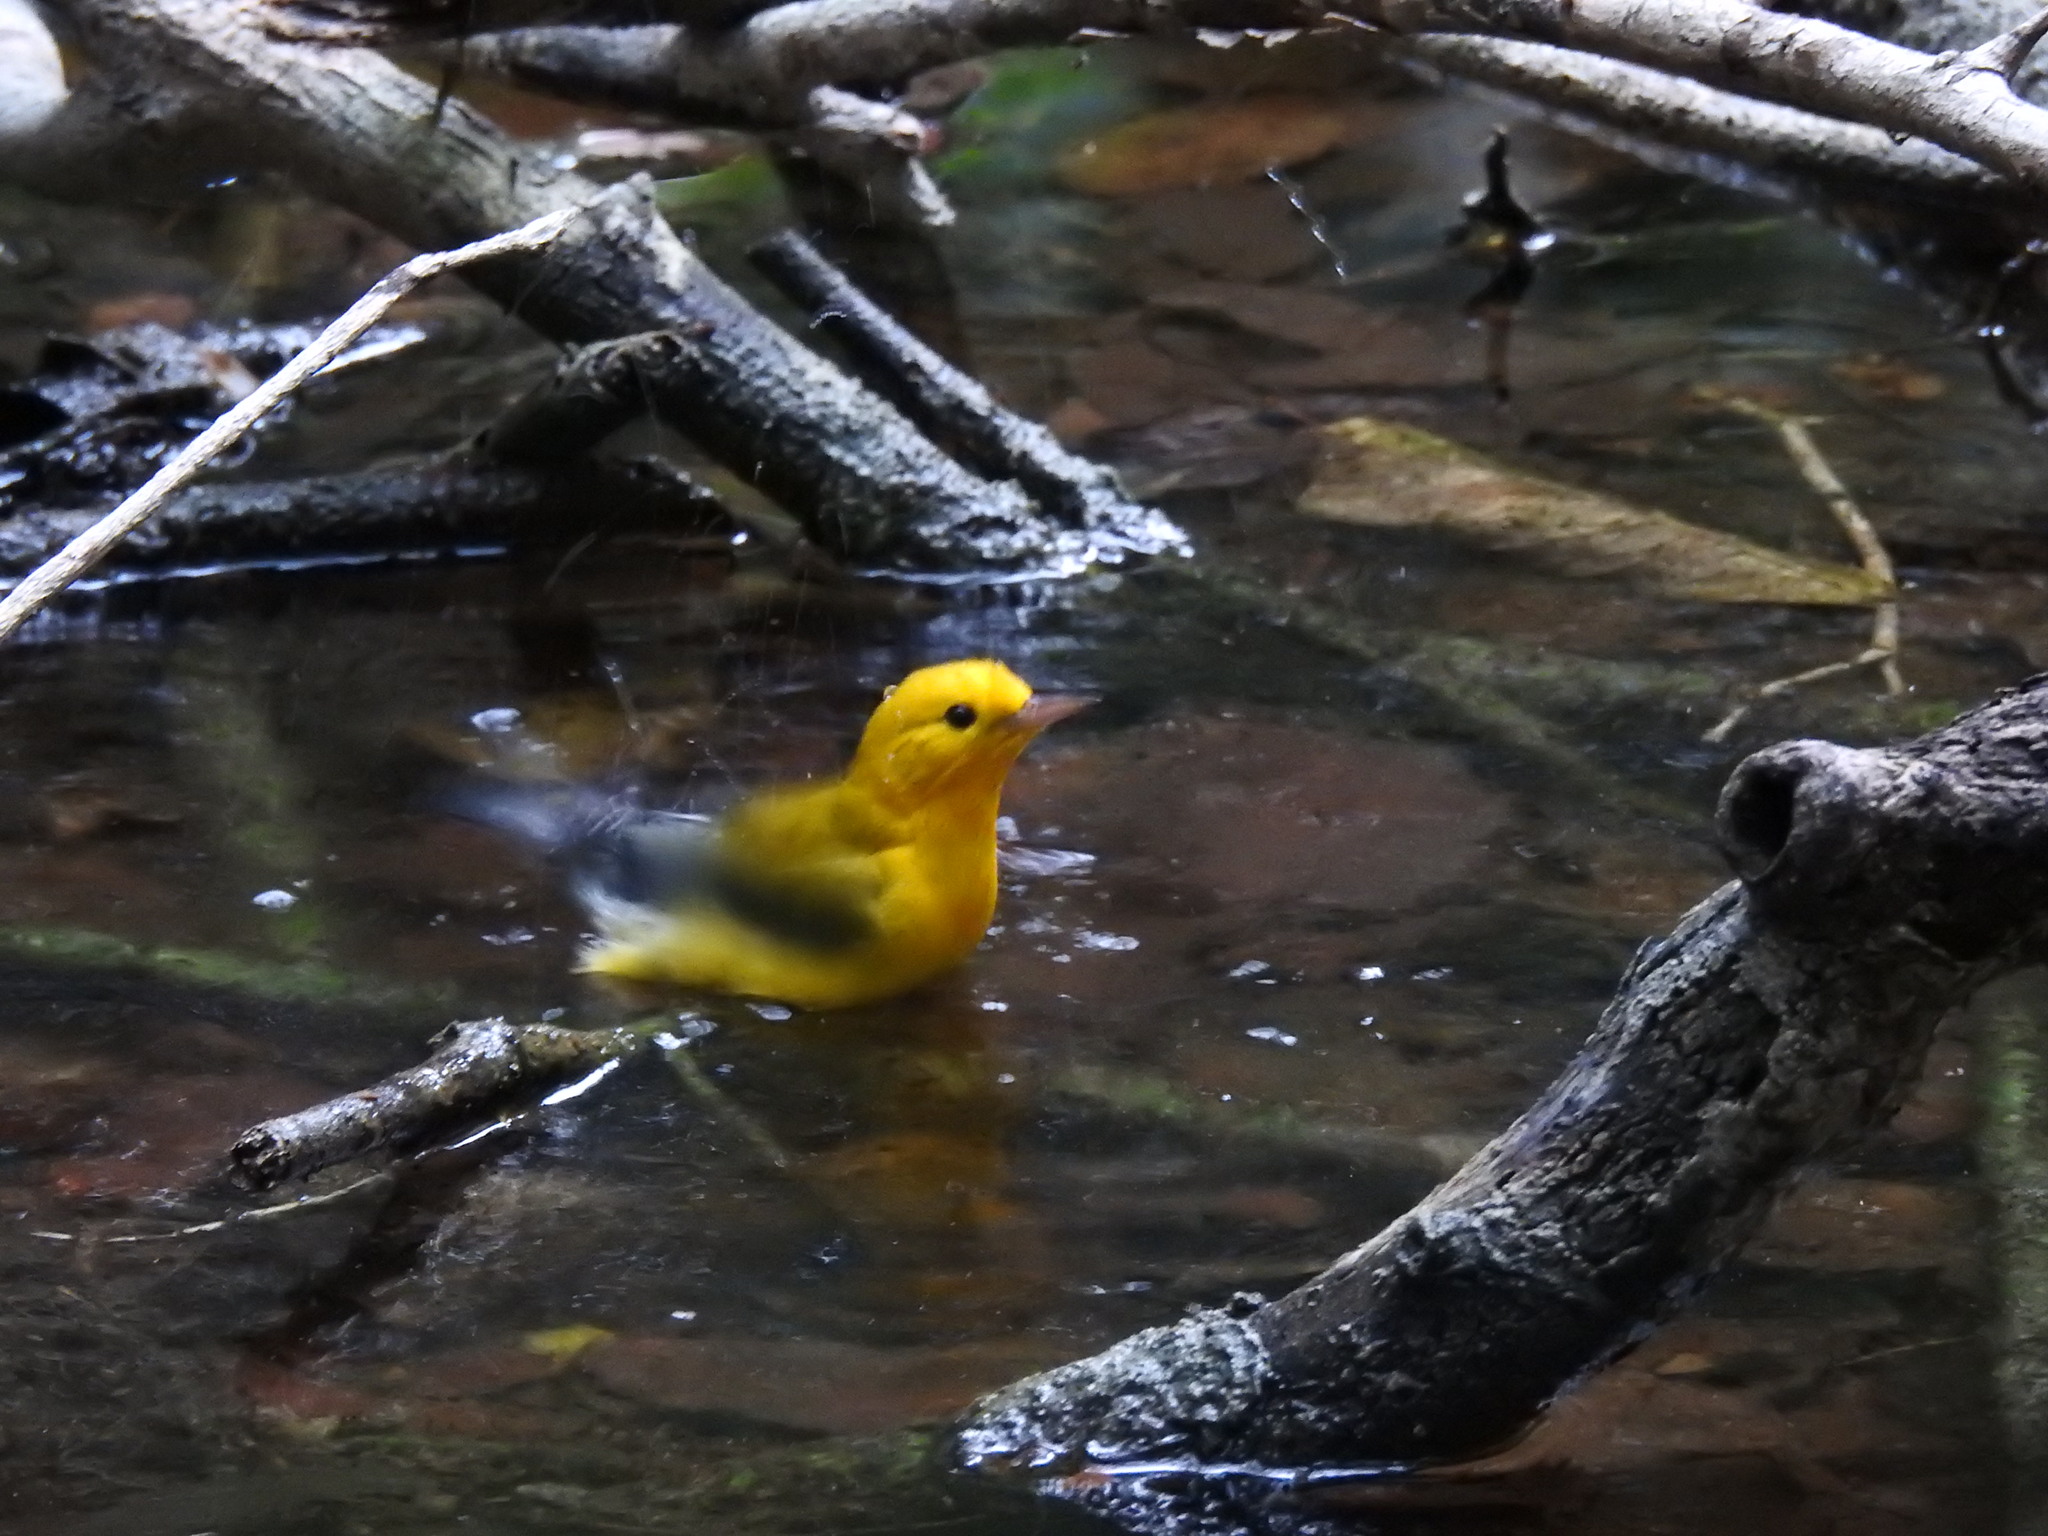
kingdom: Animalia
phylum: Chordata
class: Aves
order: Passeriformes
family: Parulidae
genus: Protonotaria
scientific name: Protonotaria citrea
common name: Prothonotary warbler
